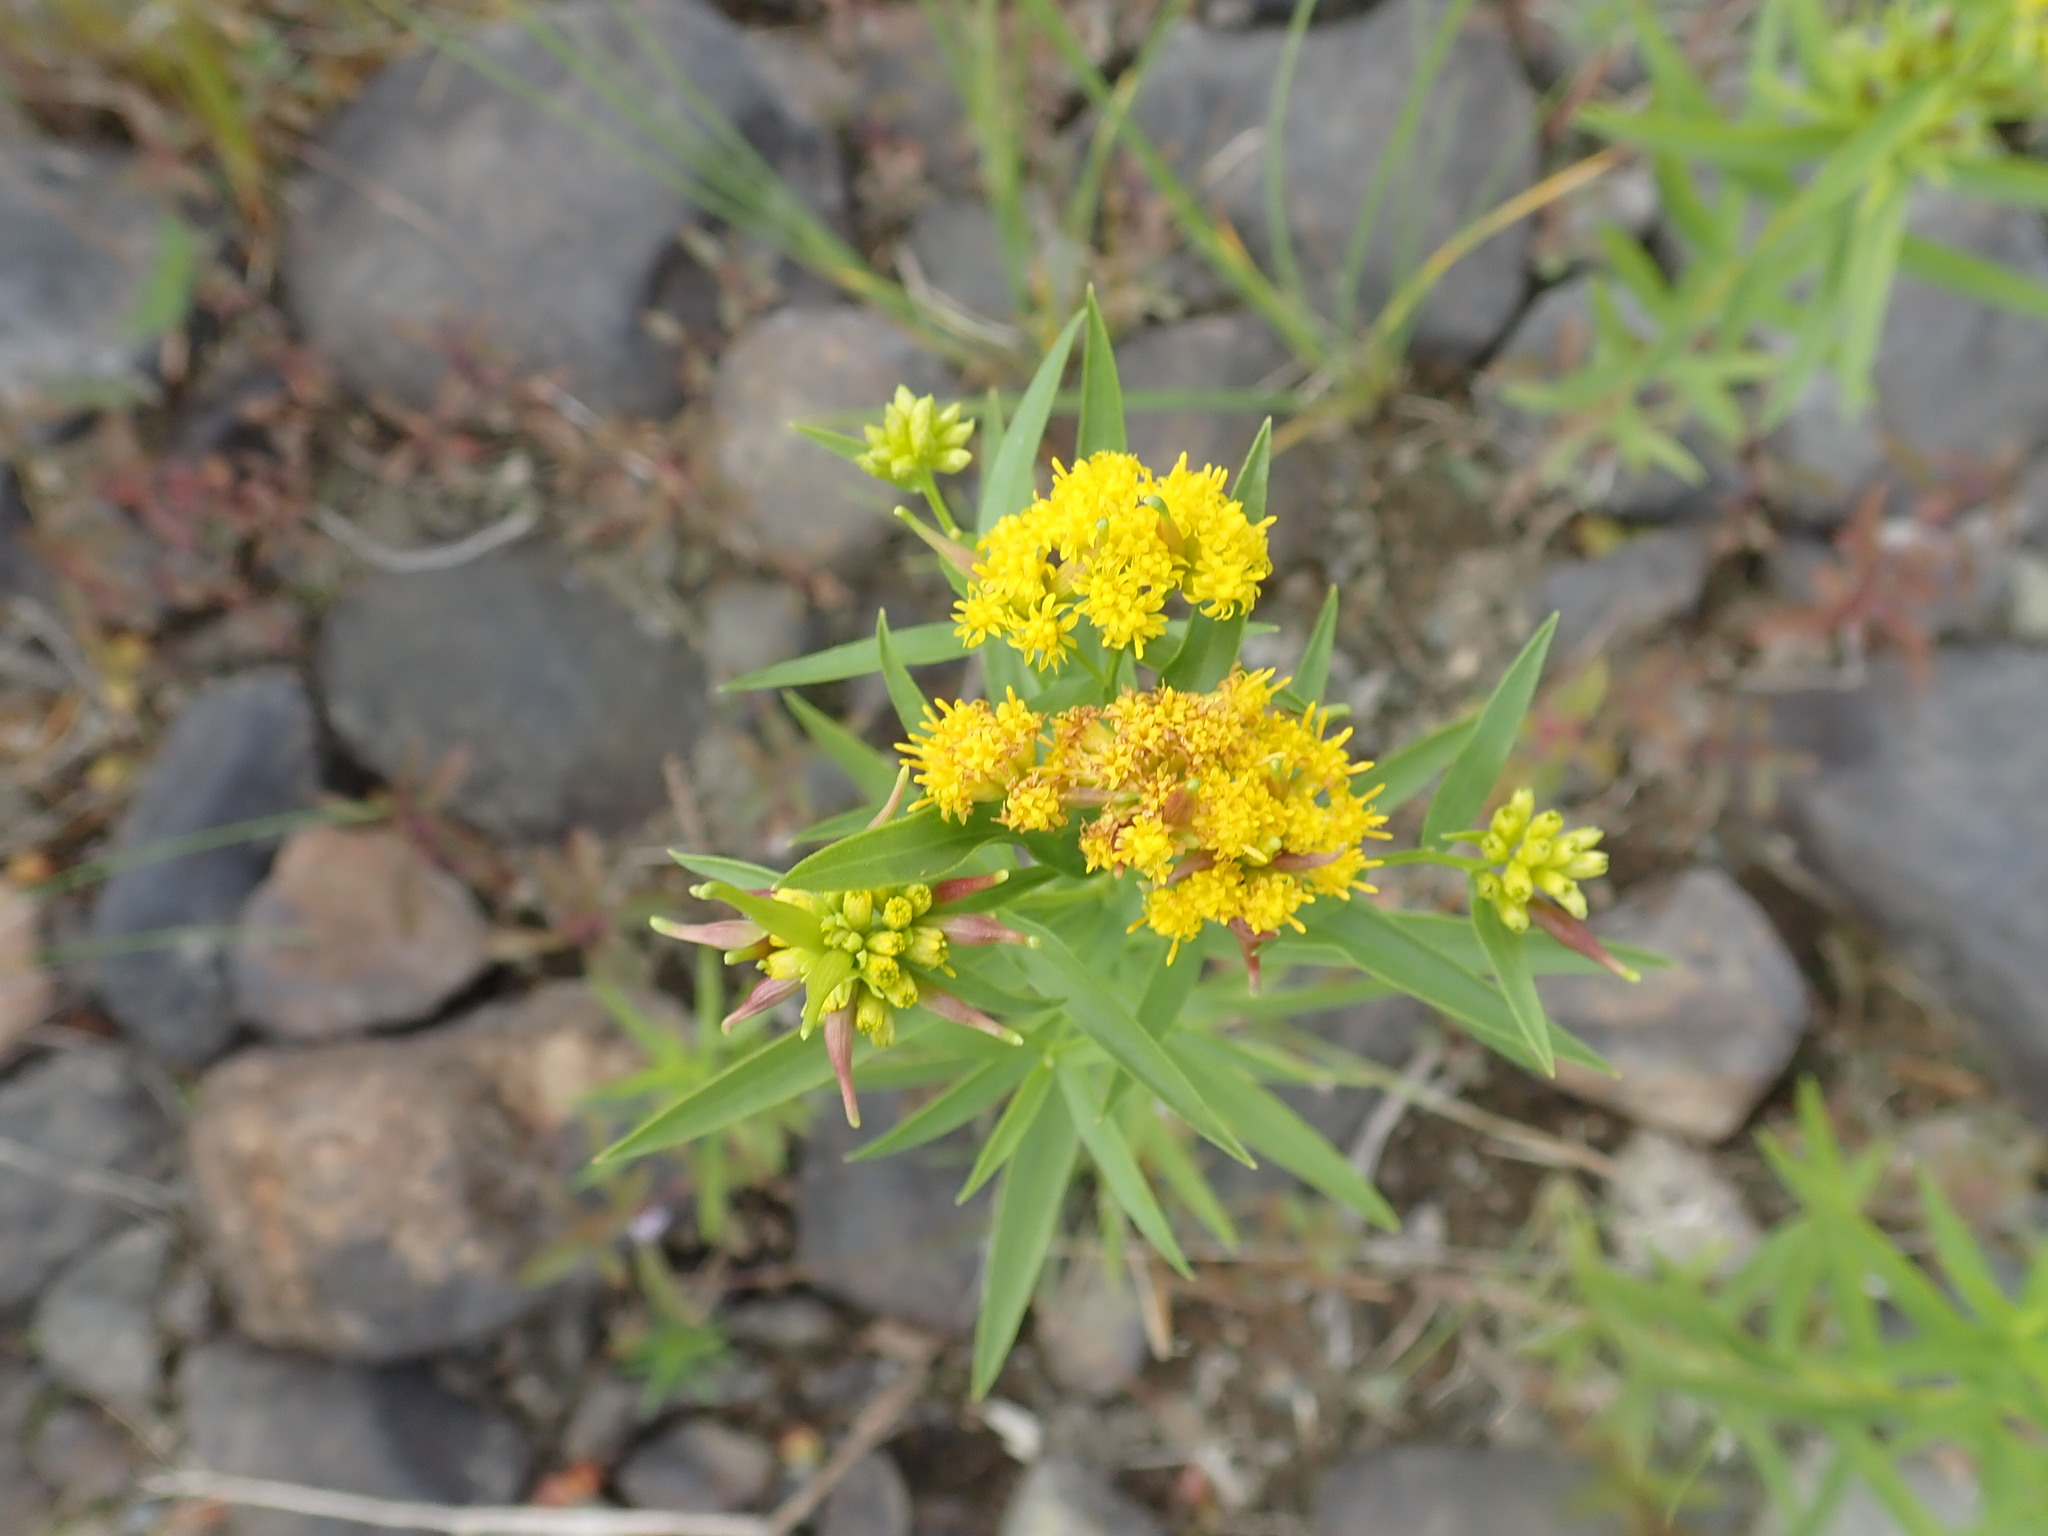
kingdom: Plantae
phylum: Tracheophyta
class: Magnoliopsida
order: Asterales
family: Asteraceae
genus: Euthamia
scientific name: Euthamia graminifolia
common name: Common goldentop
